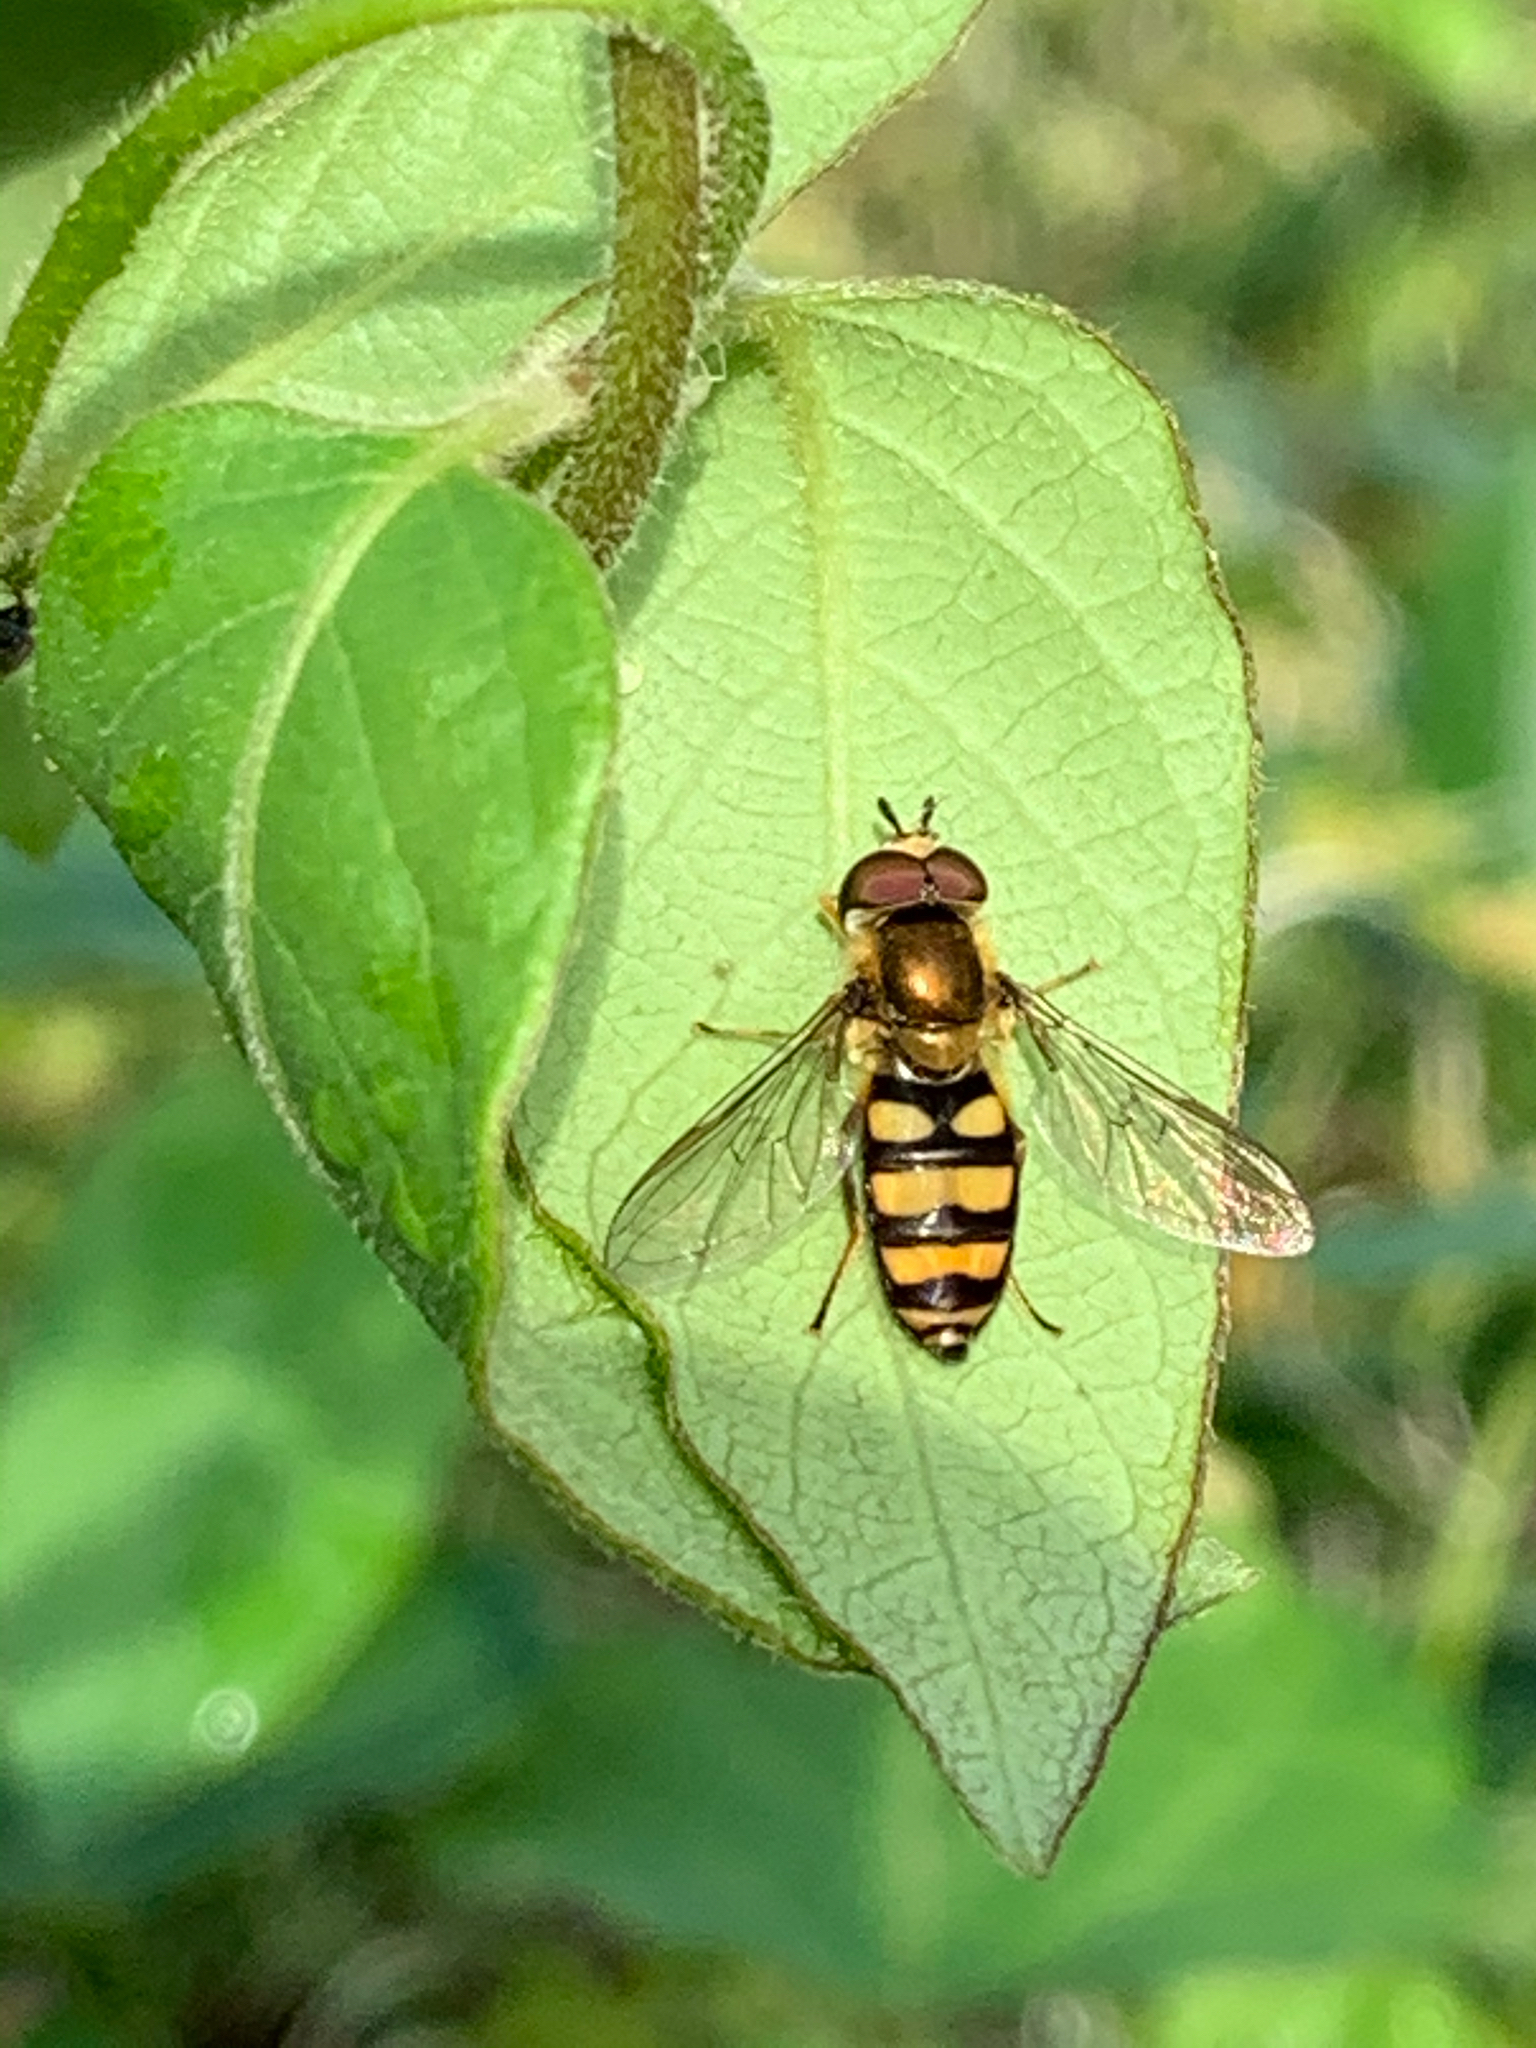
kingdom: Animalia
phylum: Arthropoda
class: Insecta
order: Diptera
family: Syrphidae
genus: Eupeodes
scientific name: Eupeodes
